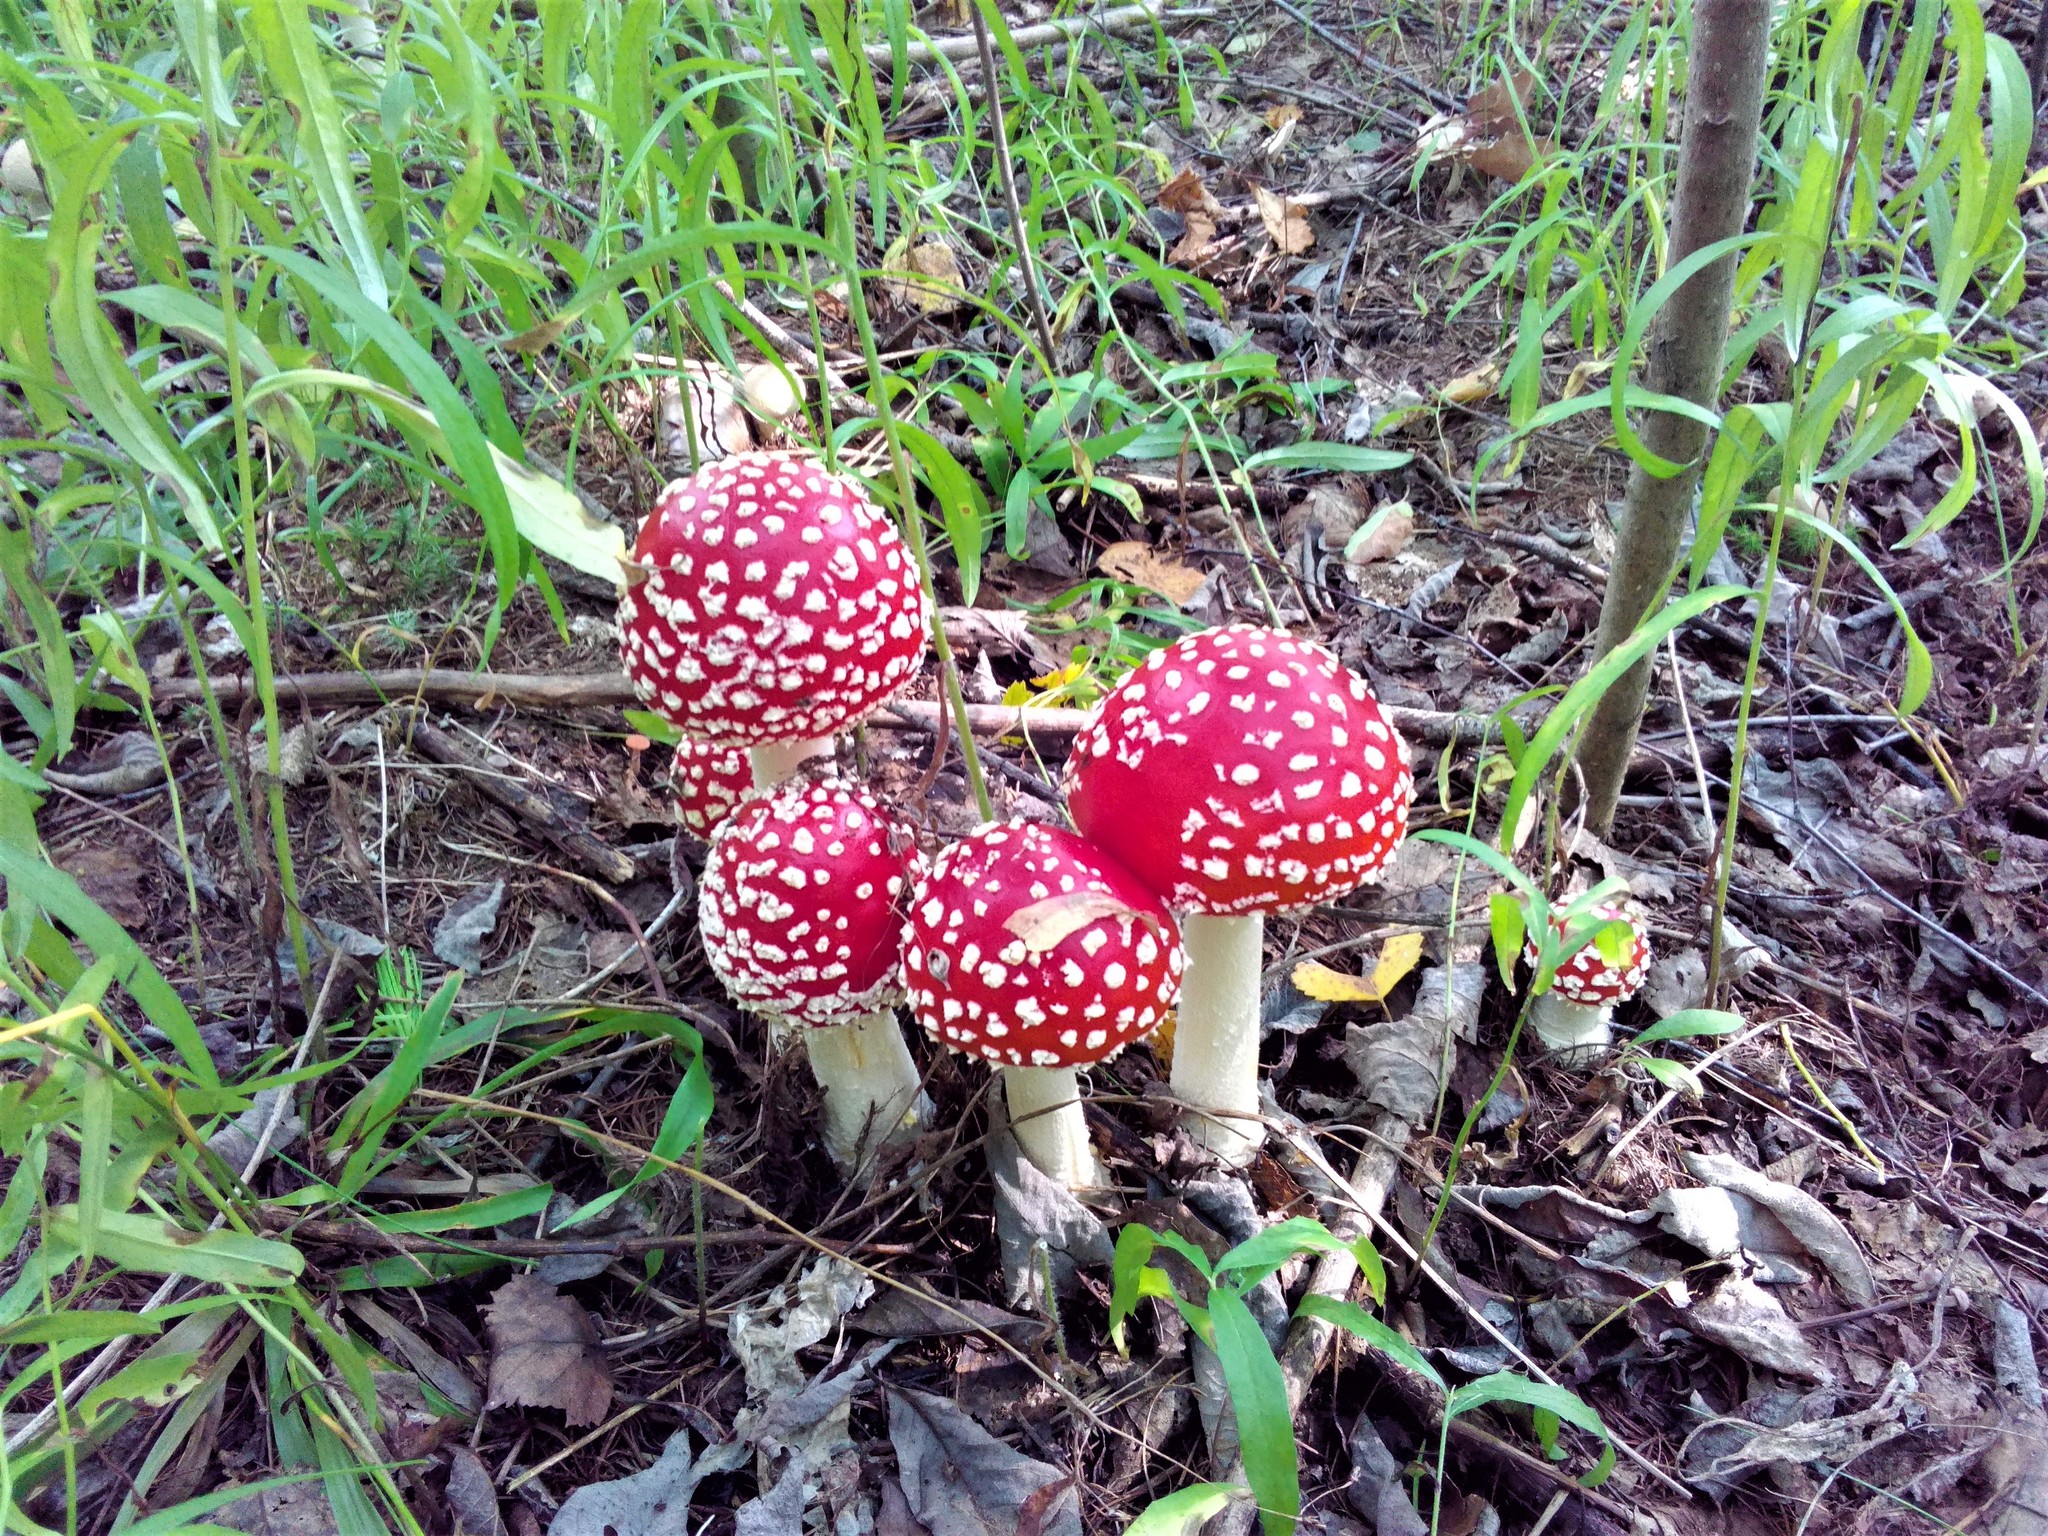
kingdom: Fungi
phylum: Basidiomycota
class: Agaricomycetes
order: Agaricales
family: Amanitaceae
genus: Amanita
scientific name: Amanita muscaria
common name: Fly agaric
